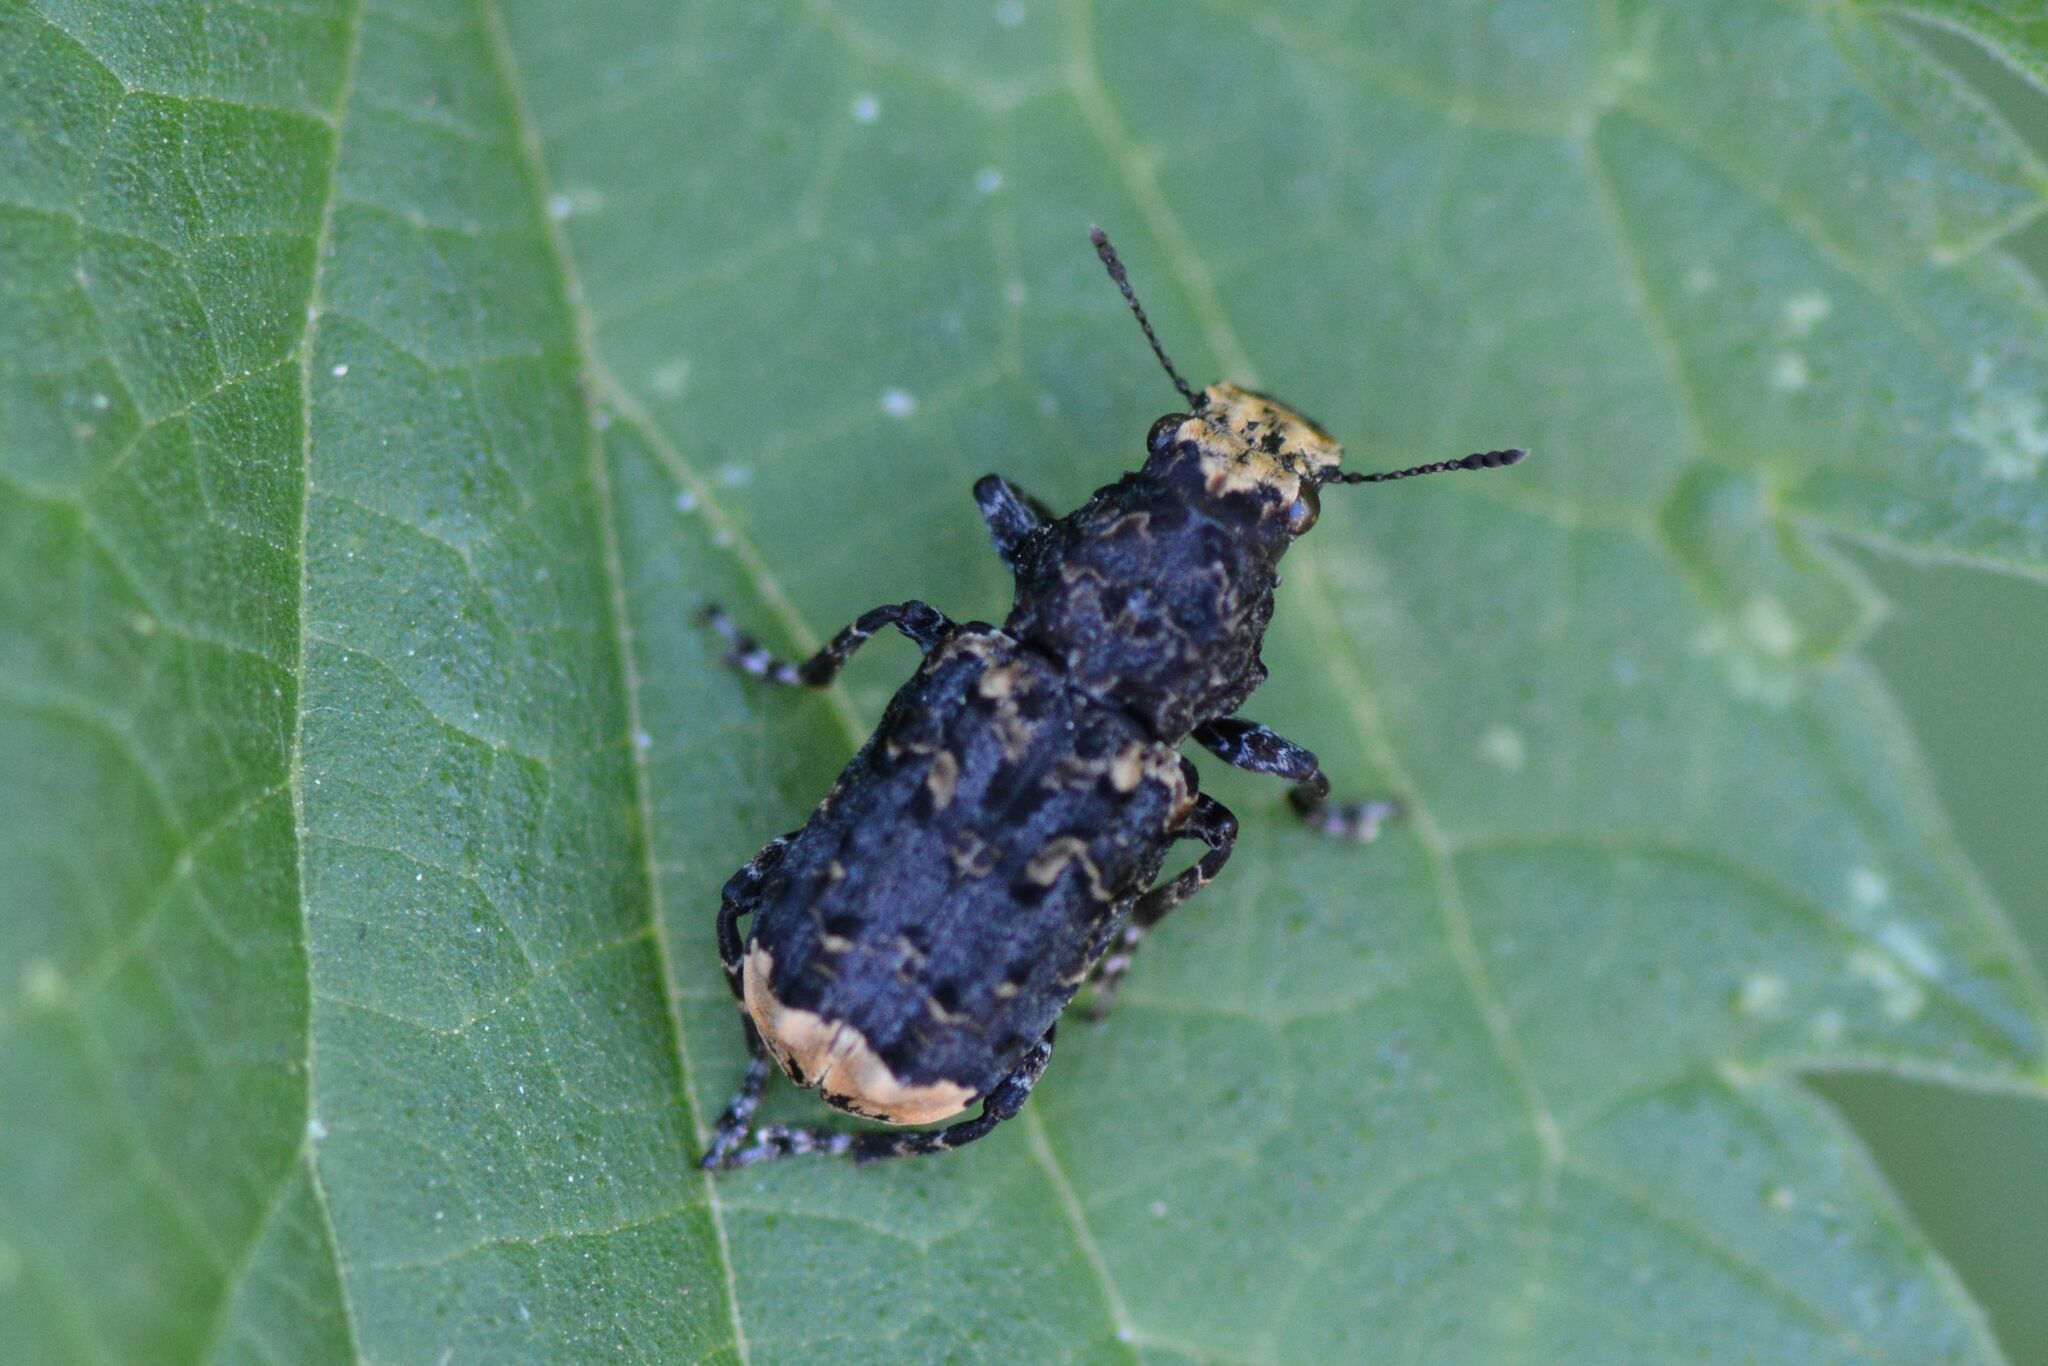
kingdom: Animalia
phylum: Arthropoda
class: Insecta
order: Coleoptera
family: Anthribidae
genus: Platyrhinus
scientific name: Platyrhinus resinosus
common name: Cramp-ball fungus weevil
